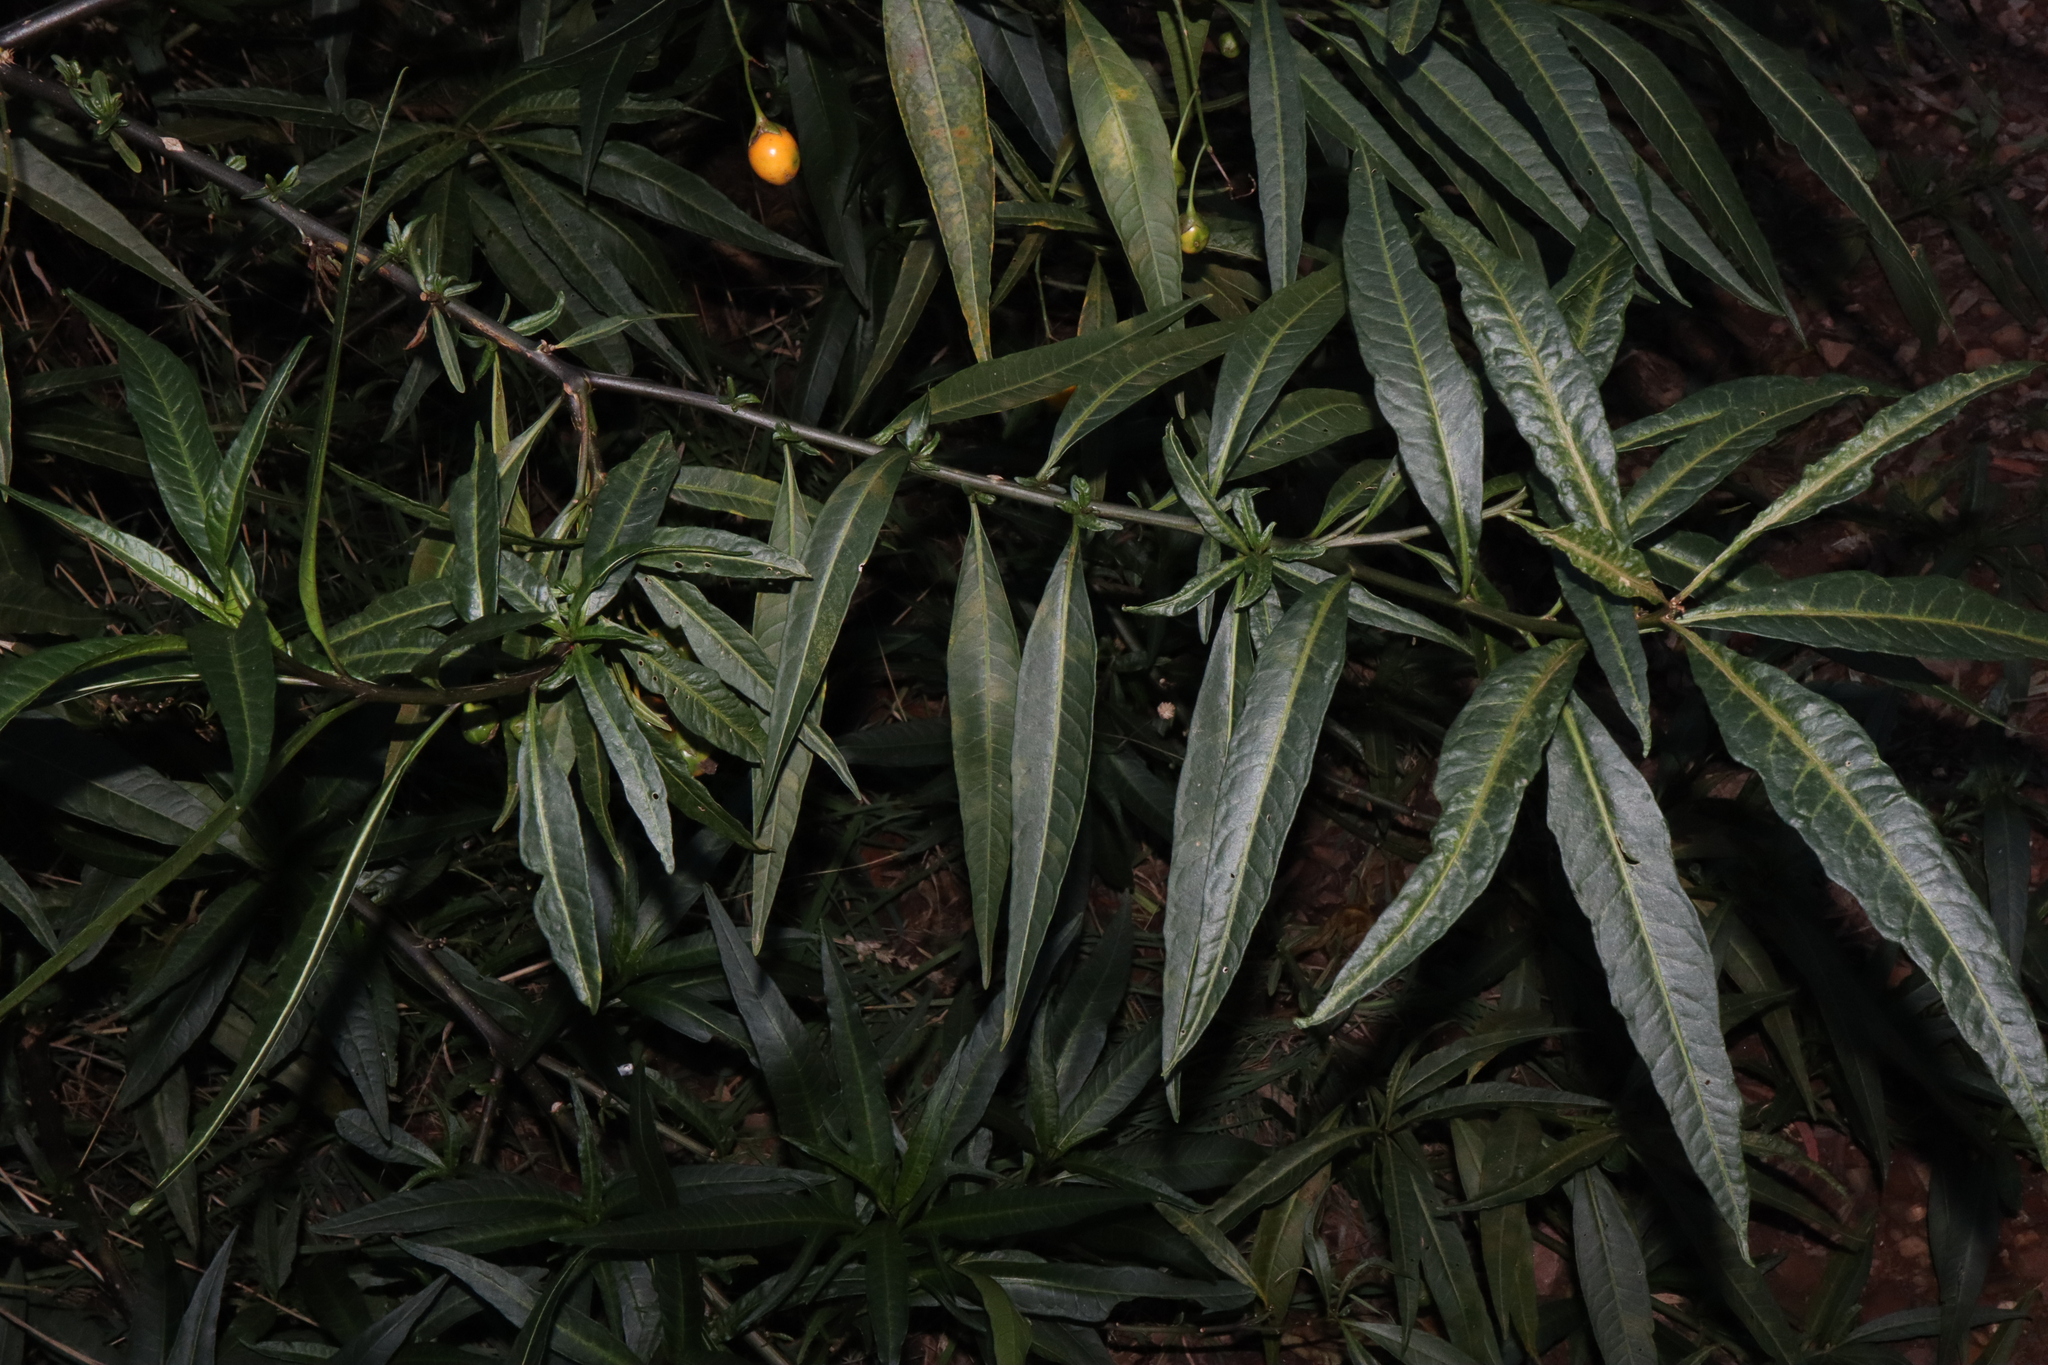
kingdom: Plantae
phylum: Tracheophyta
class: Magnoliopsida
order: Solanales
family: Solanaceae
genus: Solanum
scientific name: Solanum laciniatum
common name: Kangaroo-apple
